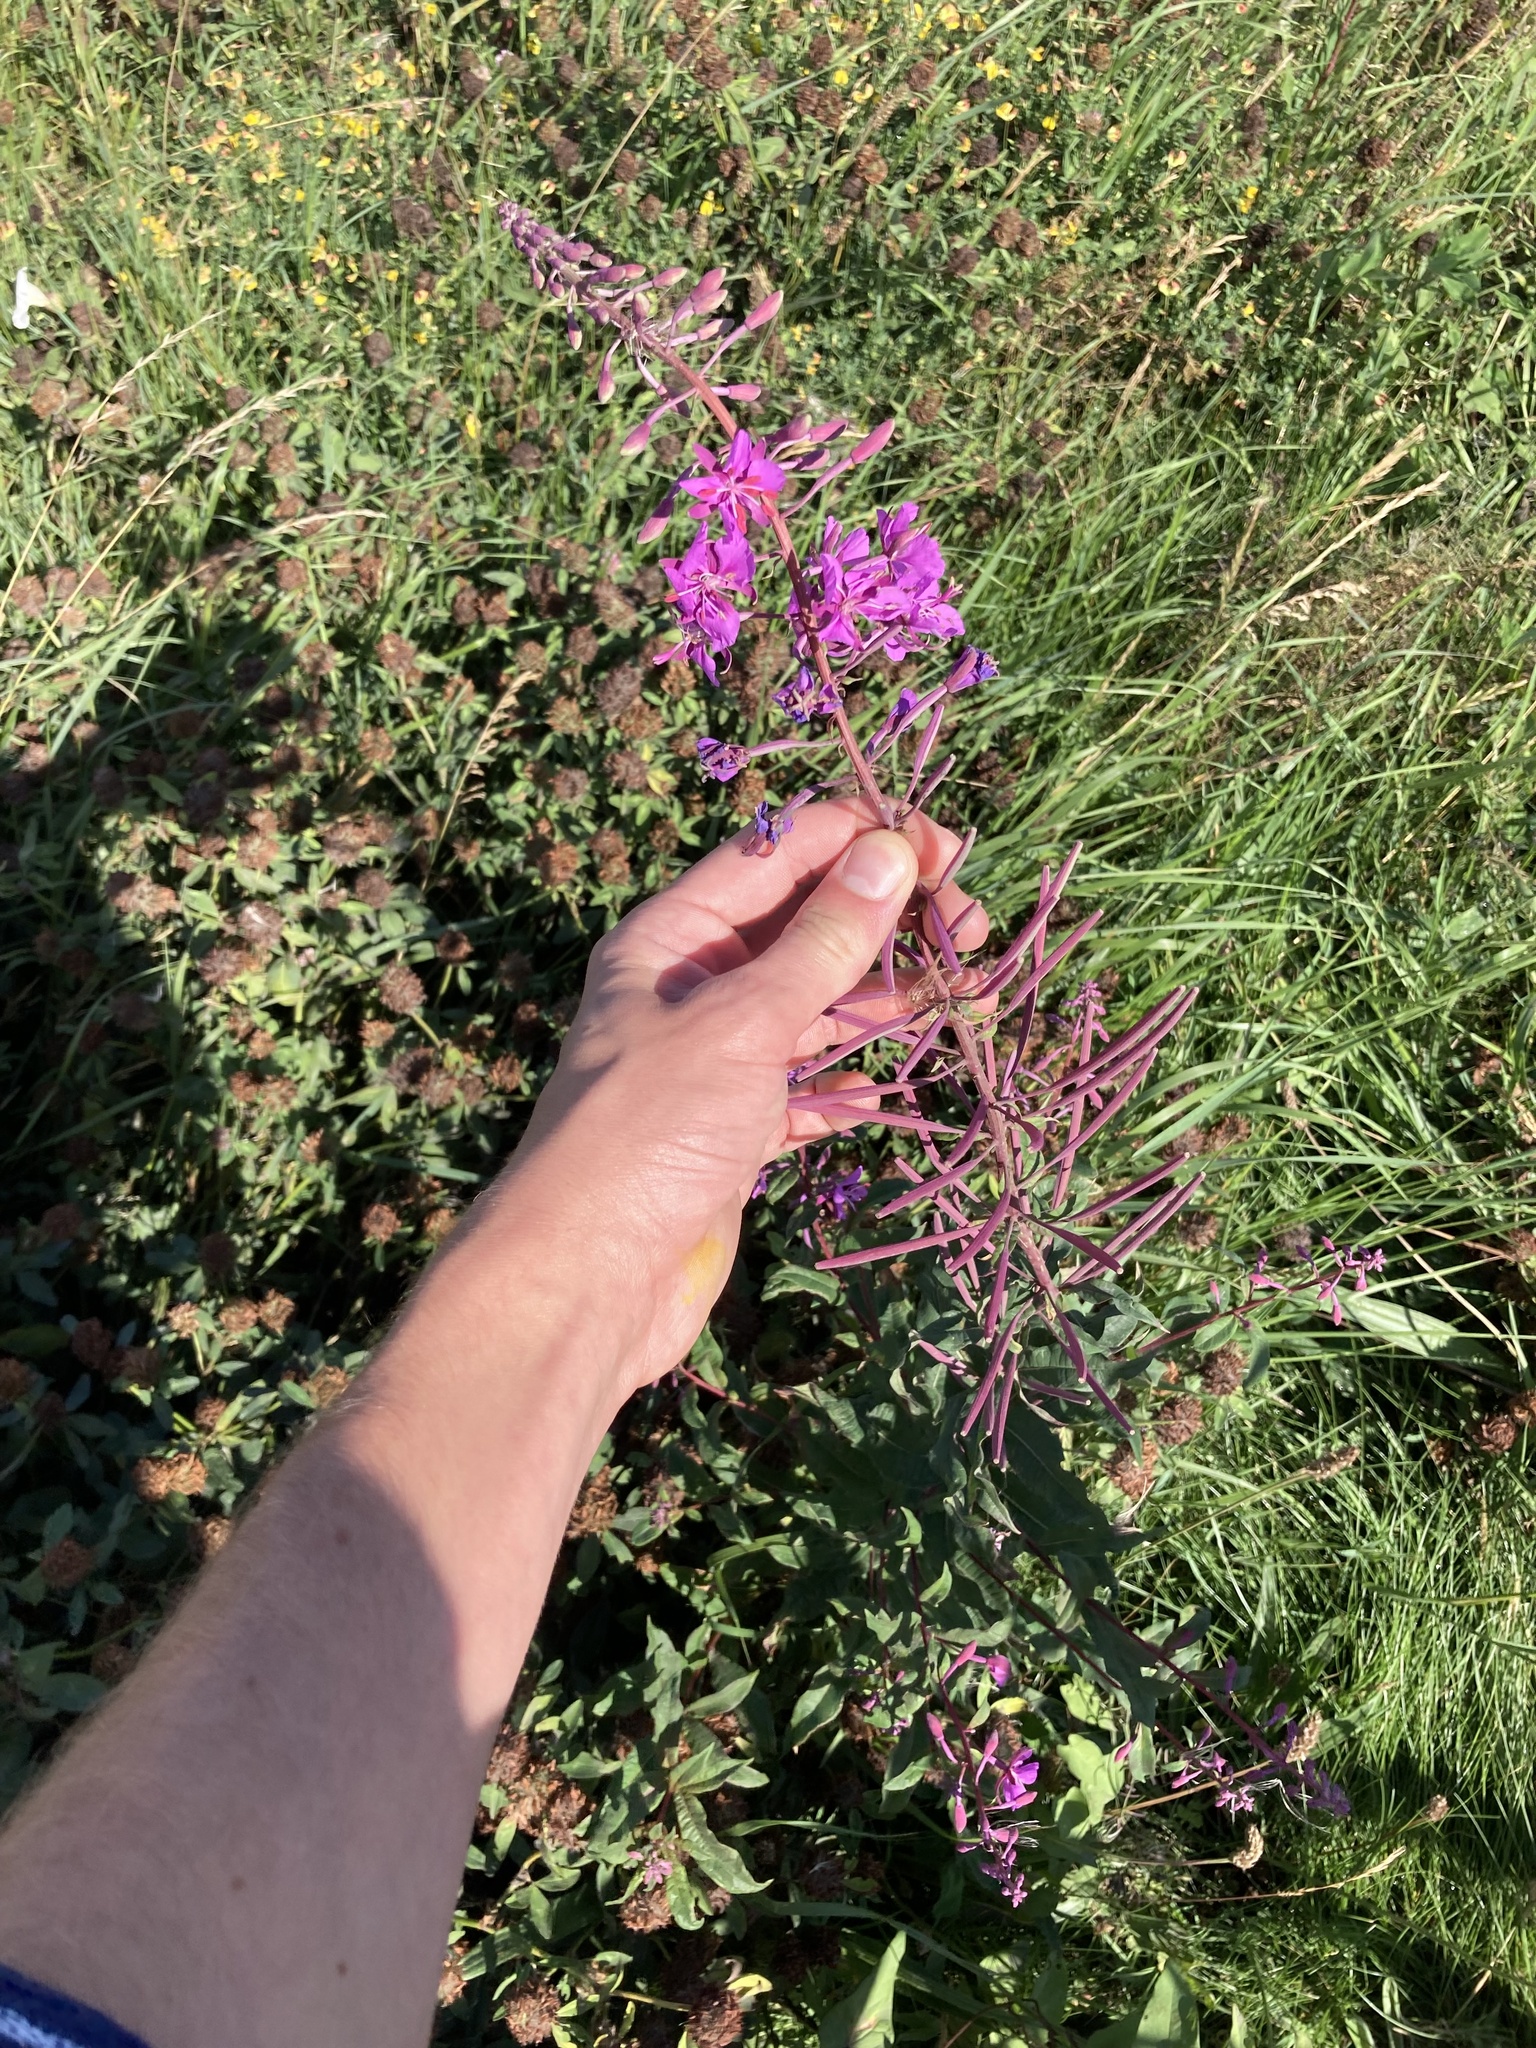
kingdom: Plantae
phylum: Tracheophyta
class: Magnoliopsida
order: Myrtales
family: Onagraceae
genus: Chamaenerion
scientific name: Chamaenerion angustifolium
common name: Fireweed
